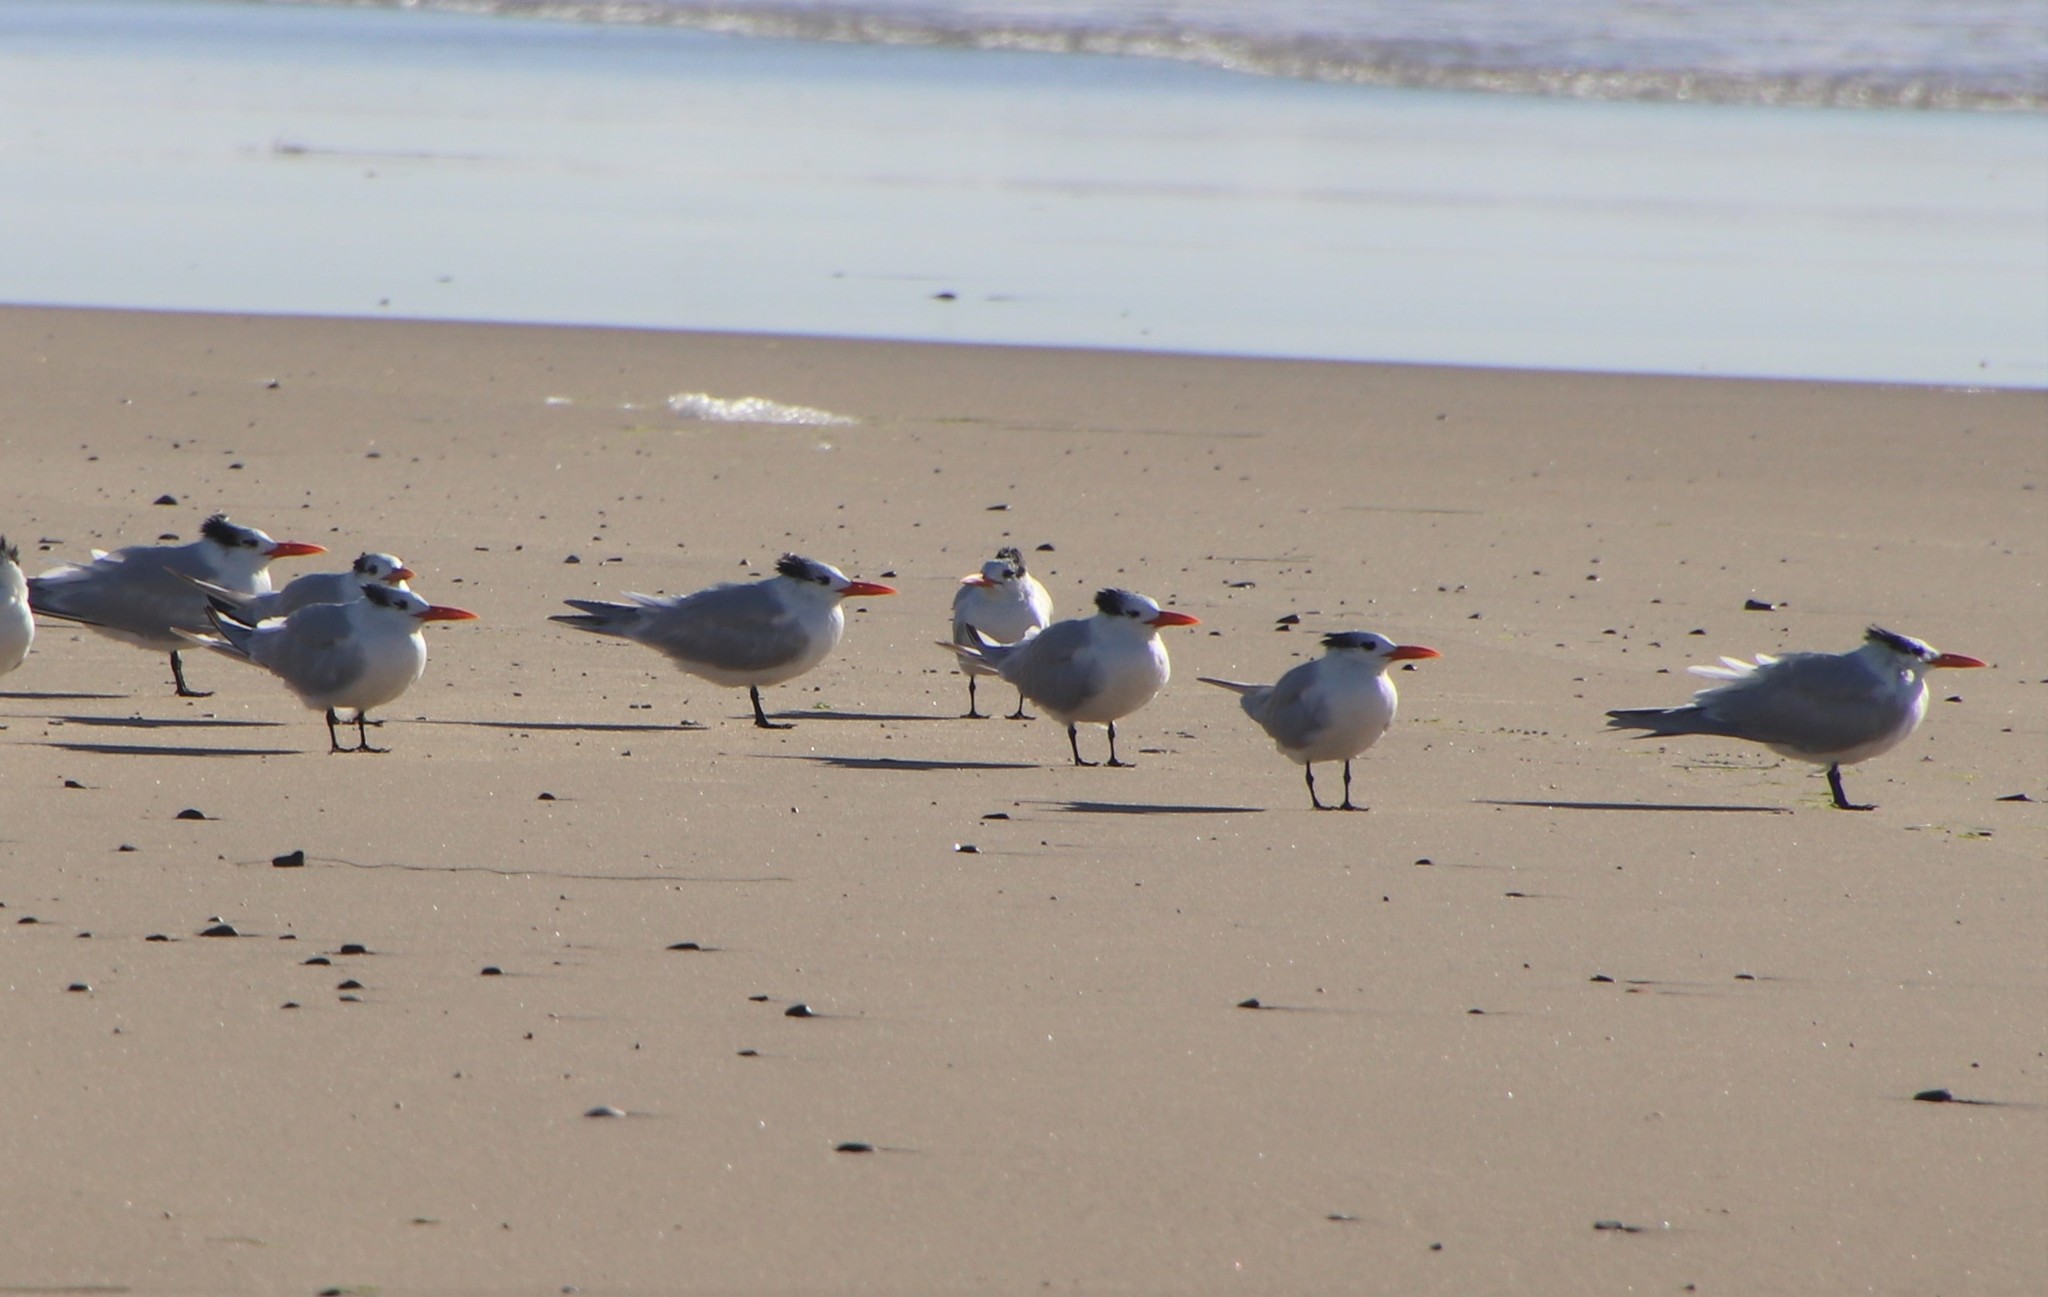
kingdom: Animalia
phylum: Chordata
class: Aves
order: Charadriiformes
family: Laridae
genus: Thalasseus
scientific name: Thalasseus maximus
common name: Royal tern
